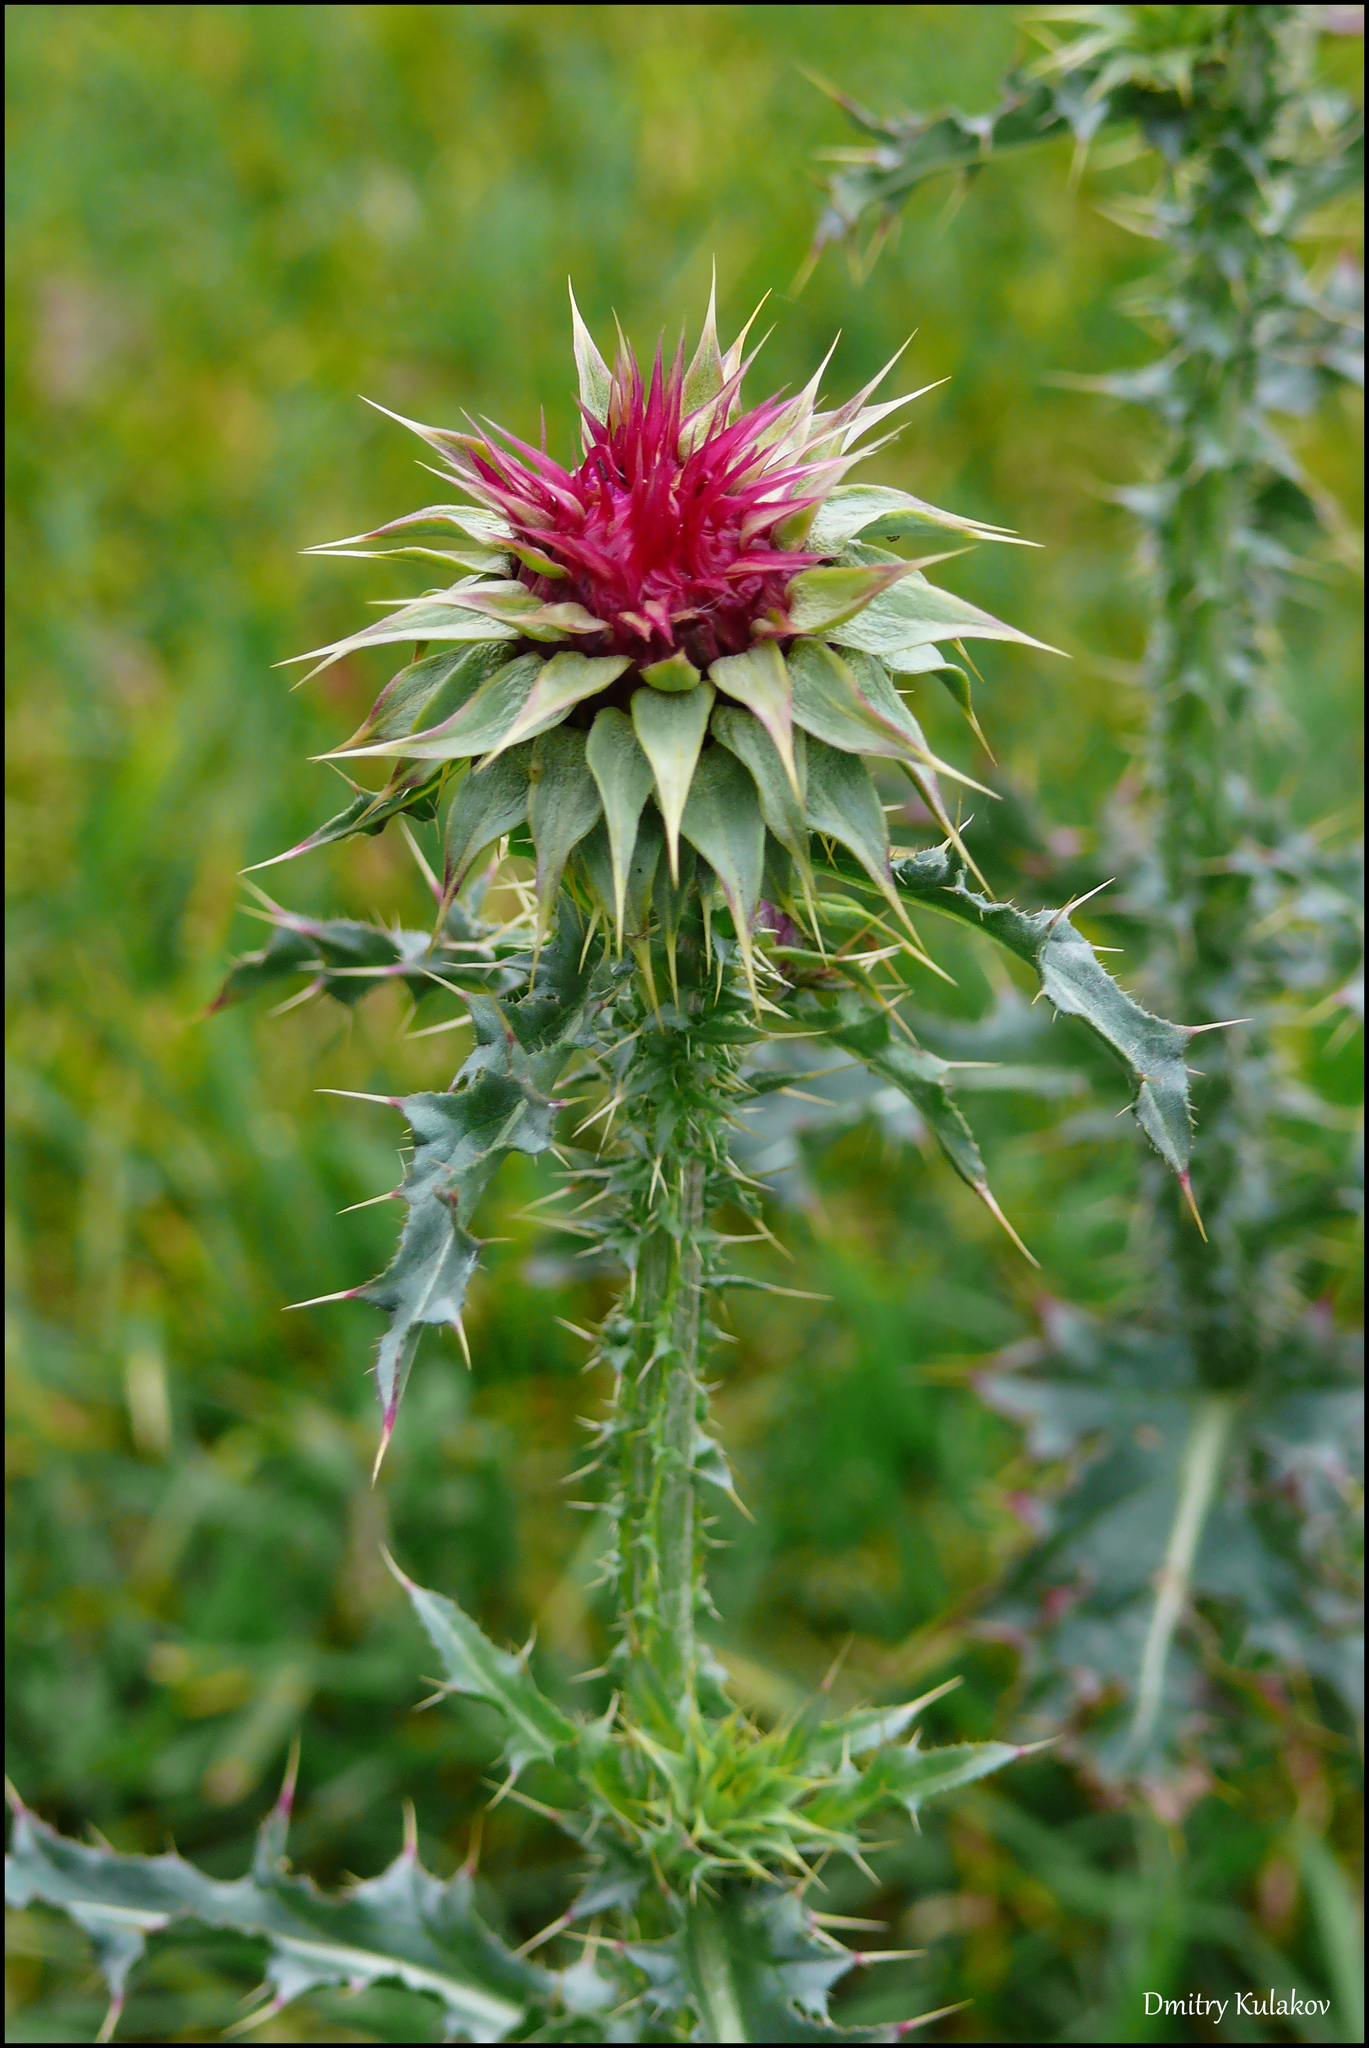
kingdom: Plantae
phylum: Tracheophyta
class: Magnoliopsida
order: Asterales
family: Asteraceae
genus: Carduus
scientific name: Carduus nutans
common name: Musk thistle
